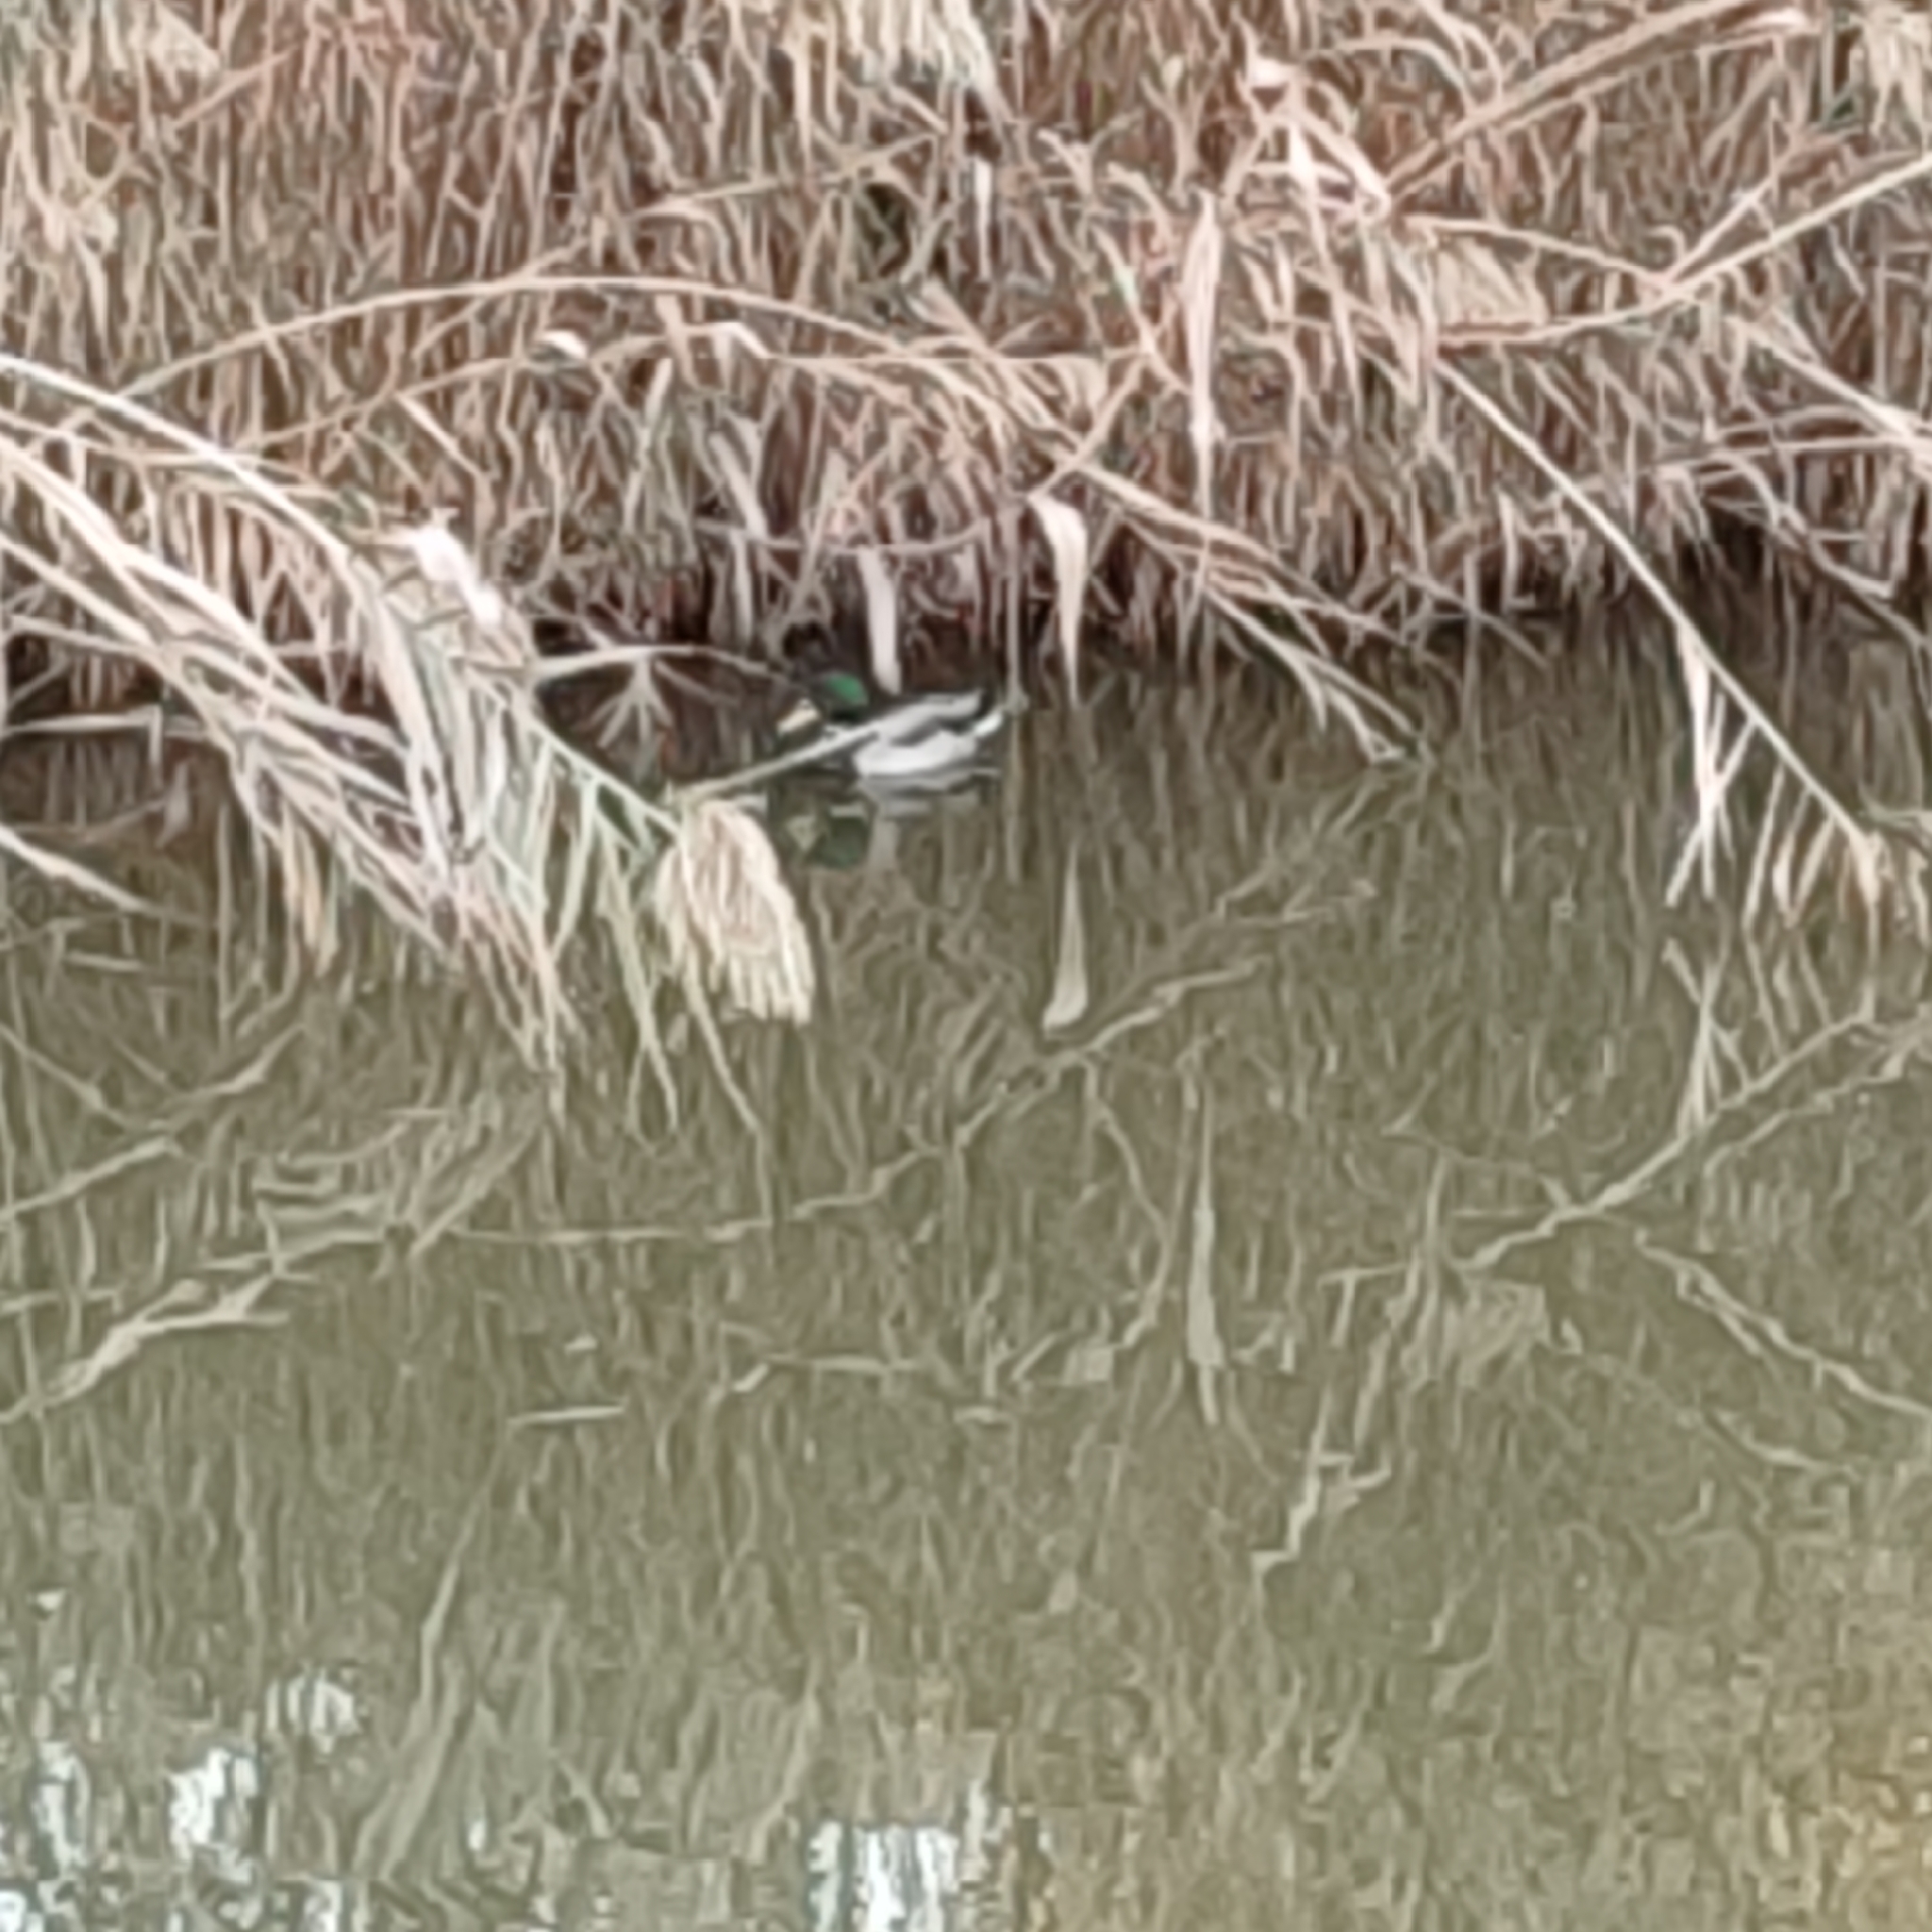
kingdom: Animalia
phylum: Chordata
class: Aves
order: Anseriformes
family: Anatidae
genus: Anas
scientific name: Anas platyrhynchos
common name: Mallard
